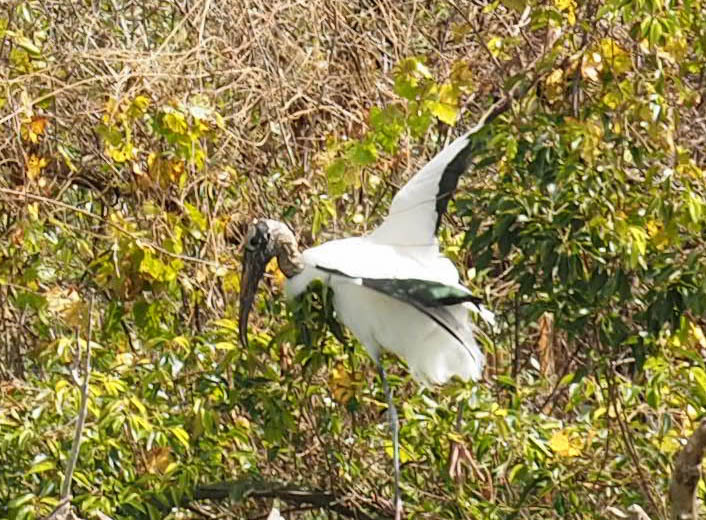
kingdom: Animalia
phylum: Chordata
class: Aves
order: Ciconiiformes
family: Ciconiidae
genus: Mycteria
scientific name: Mycteria americana
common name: Wood stork
